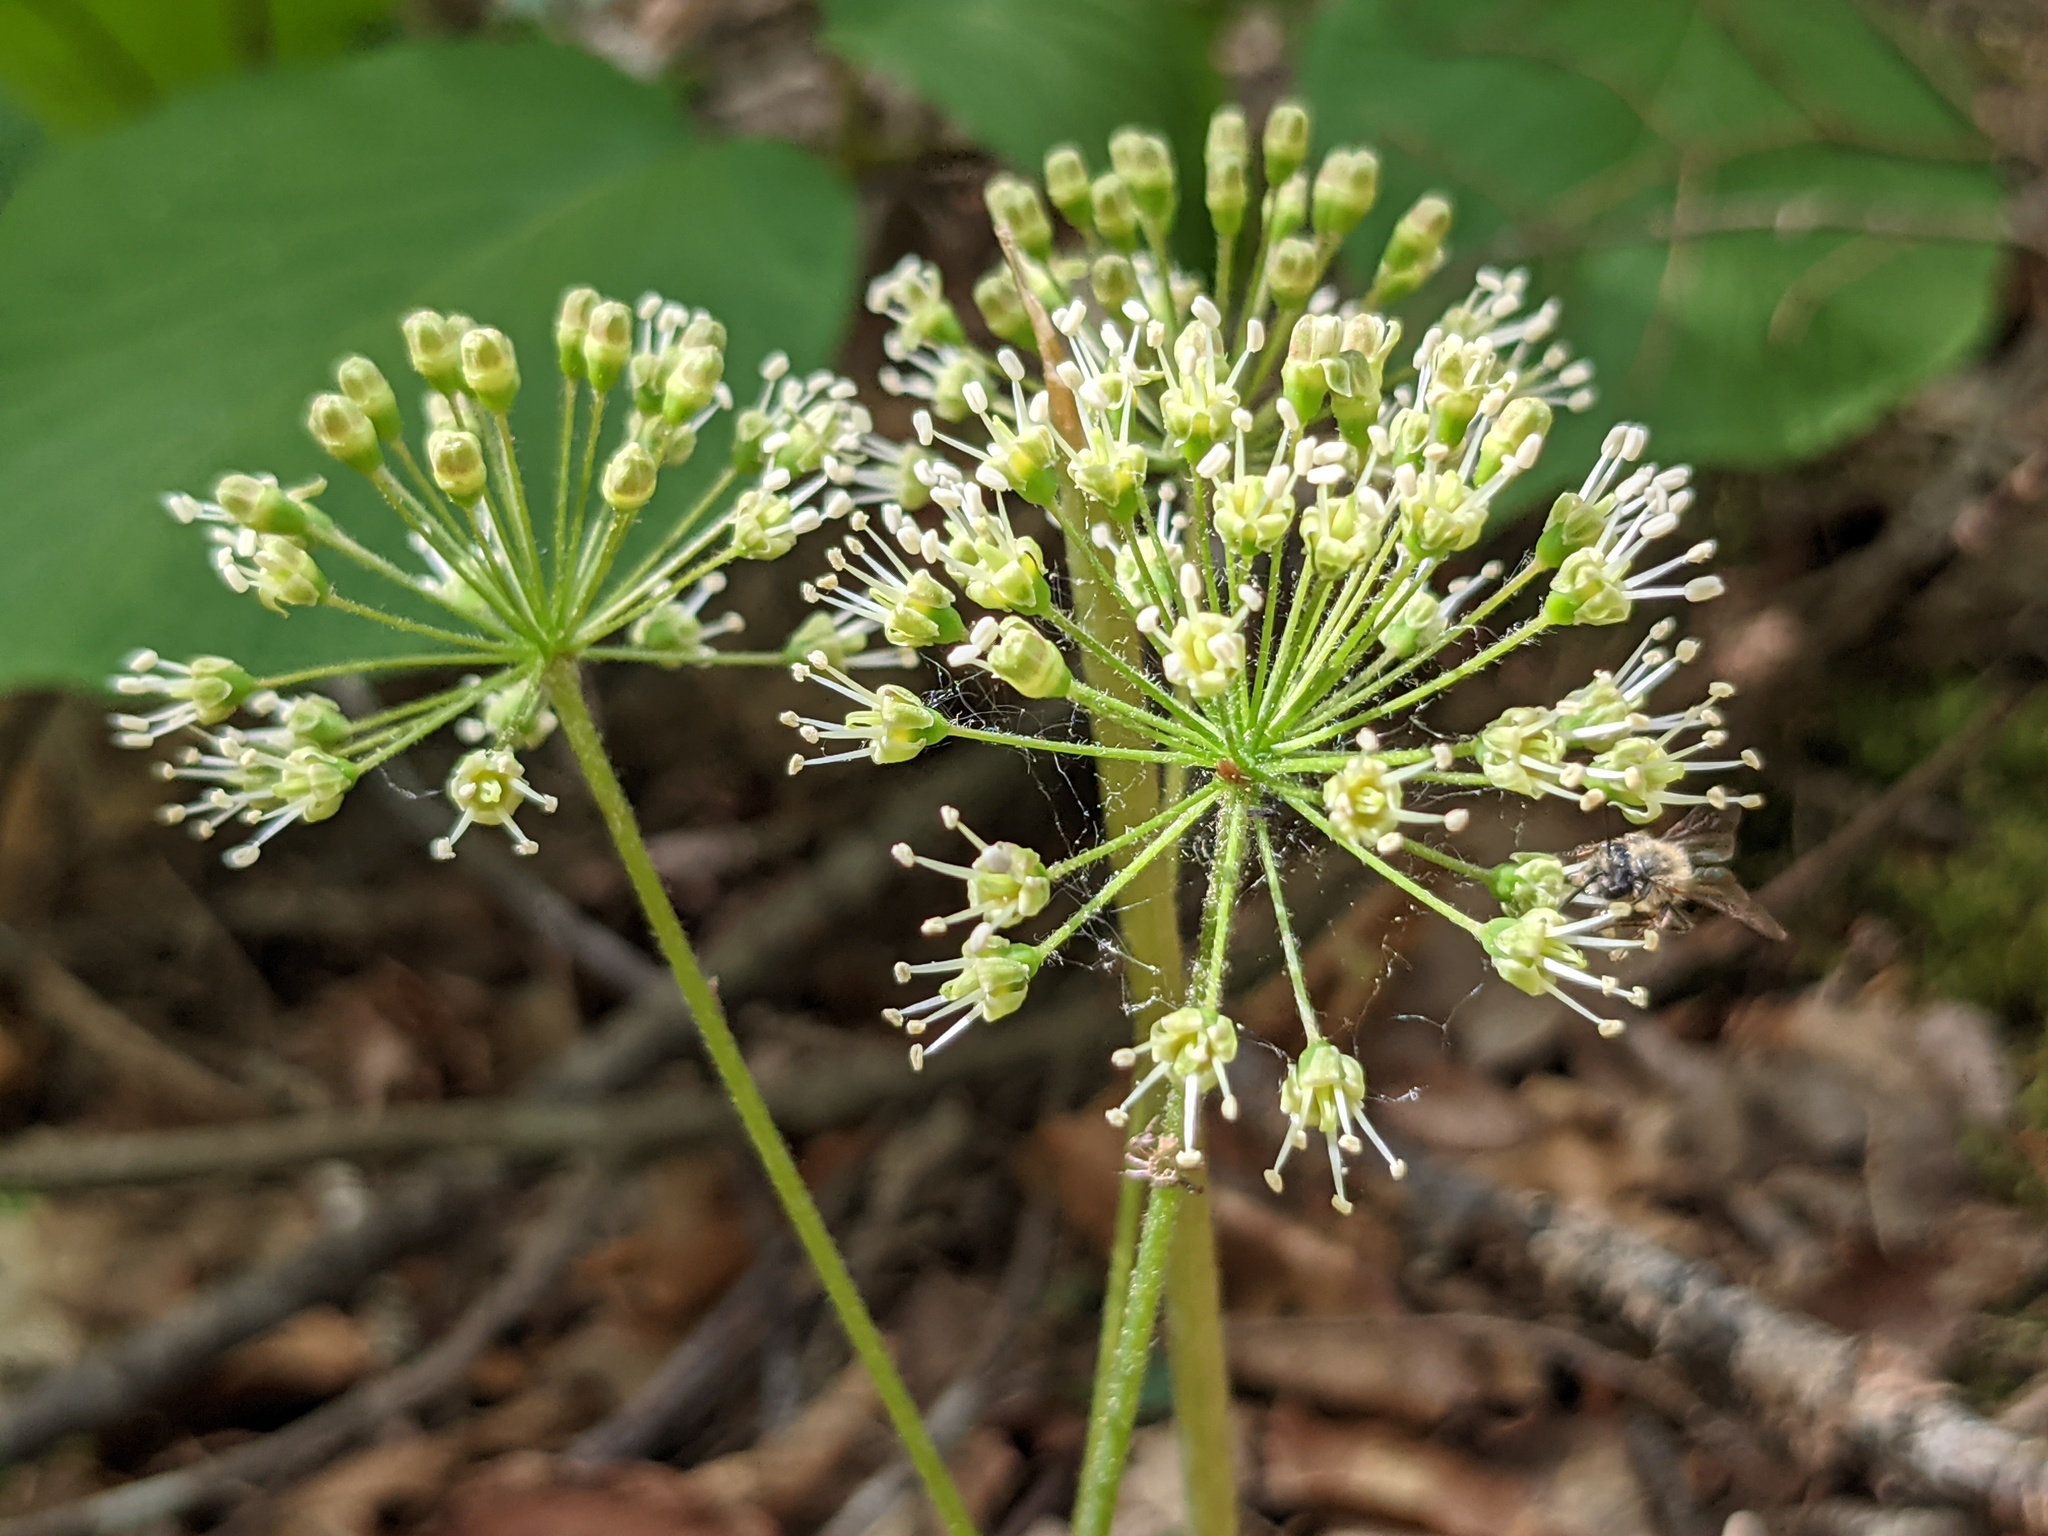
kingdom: Plantae
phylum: Tracheophyta
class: Magnoliopsida
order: Apiales
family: Araliaceae
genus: Aralia
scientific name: Aralia nudicaulis
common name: Wild sarsaparilla
